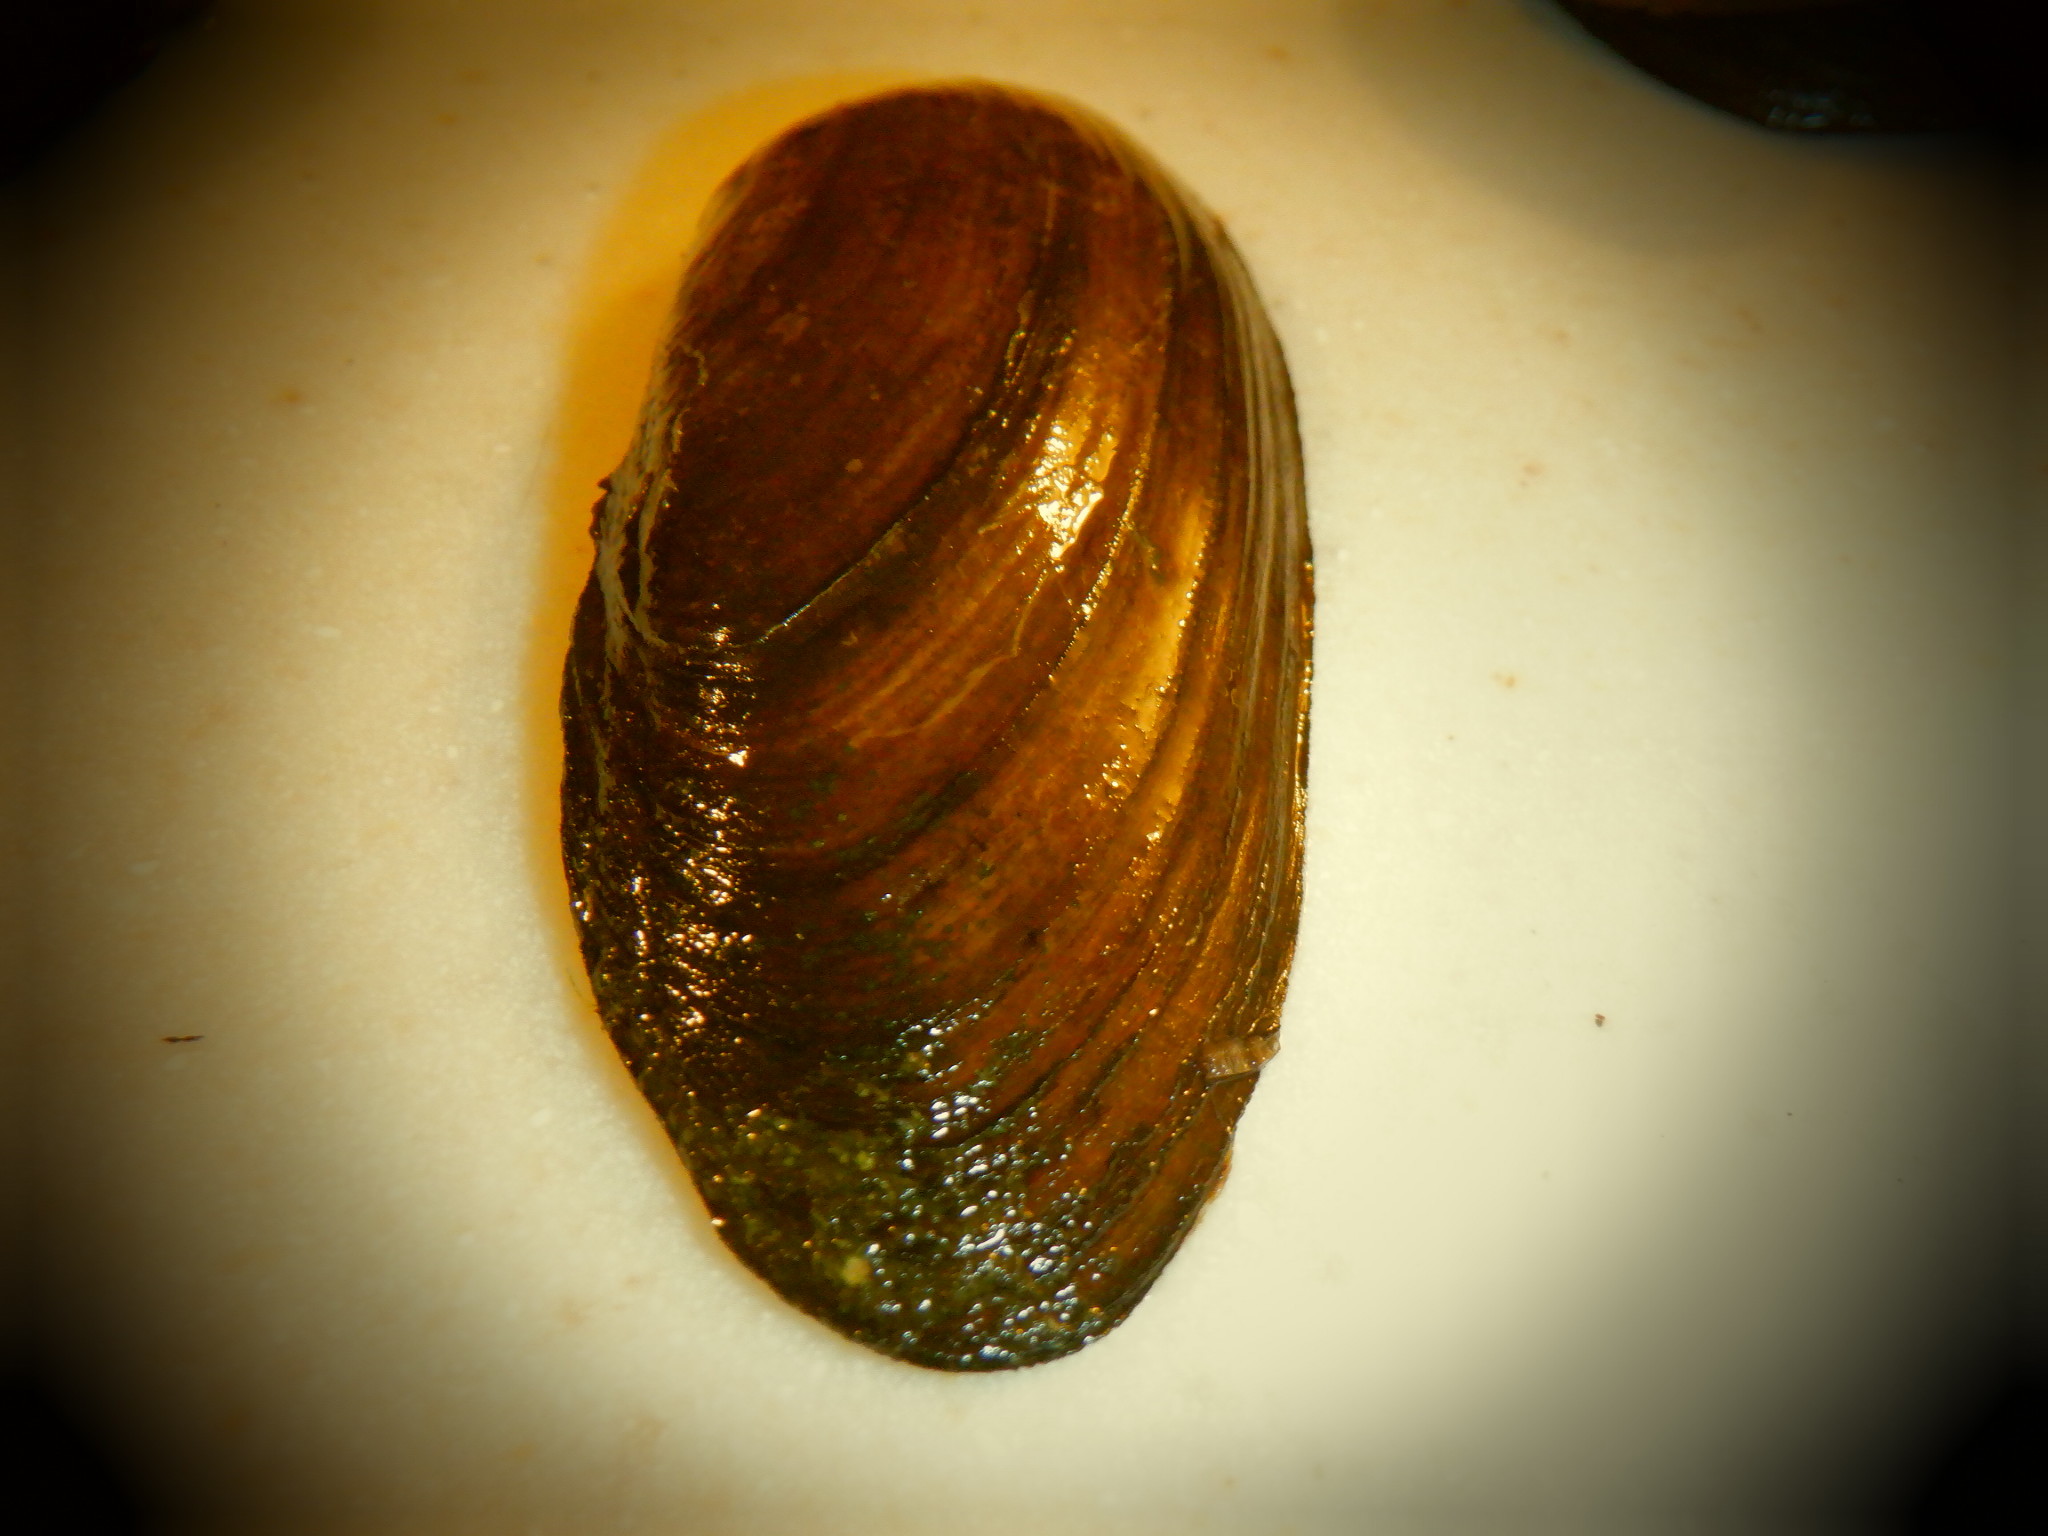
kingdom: Animalia
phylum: Mollusca
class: Bivalvia
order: Unionida
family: Unionidae
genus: Eurynia
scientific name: Eurynia dilatata
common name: Spike
